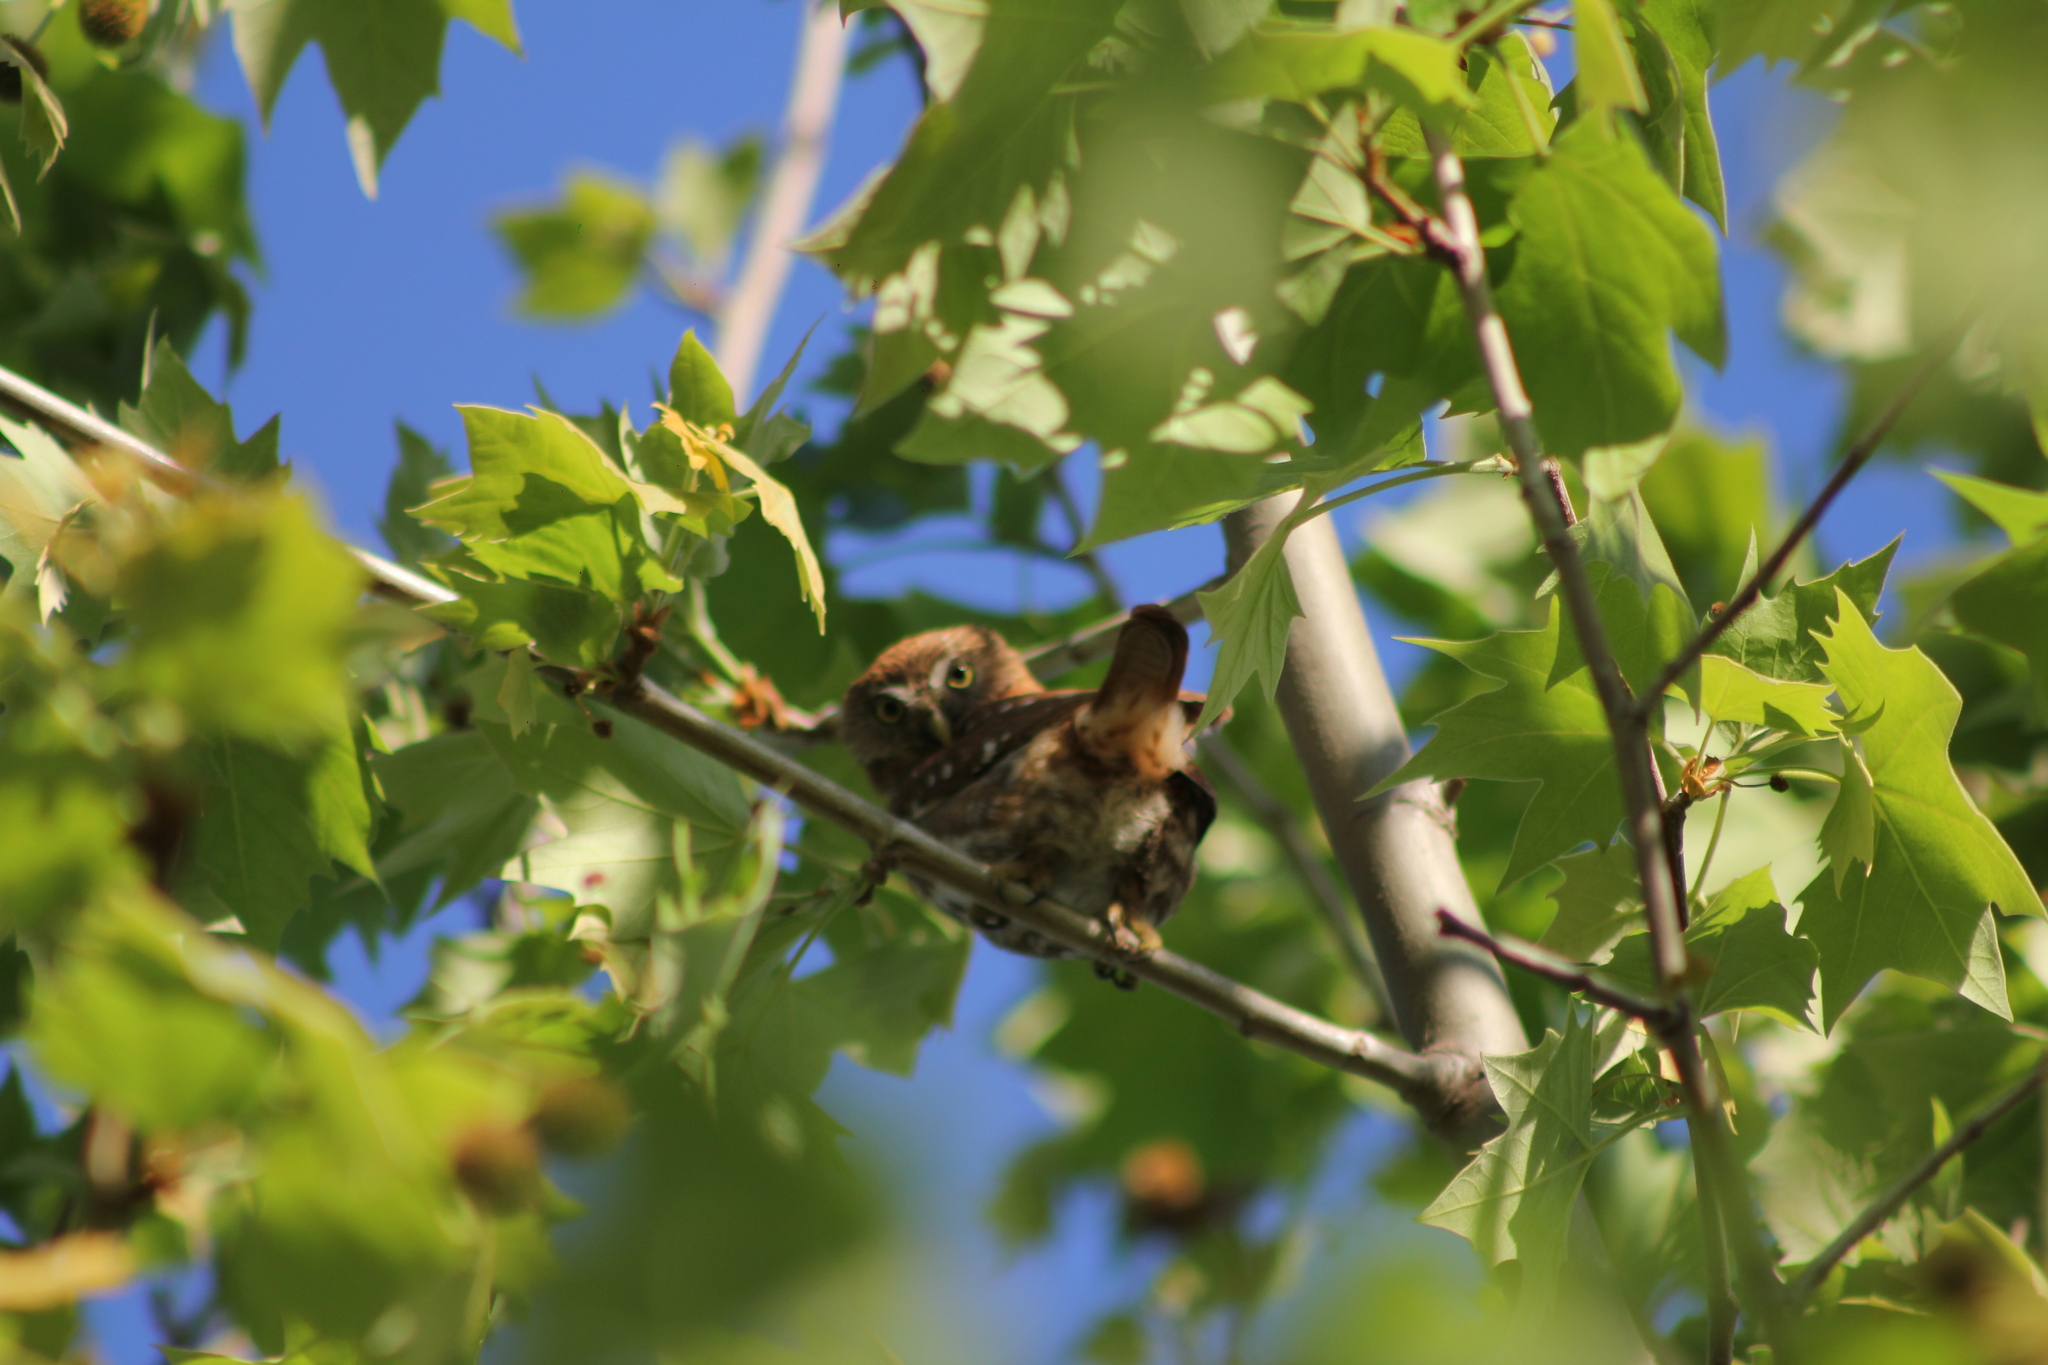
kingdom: Animalia
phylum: Chordata
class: Aves
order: Strigiformes
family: Strigidae
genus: Glaucidium
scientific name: Glaucidium brasilianum
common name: Ferruginous pygmy-owl
